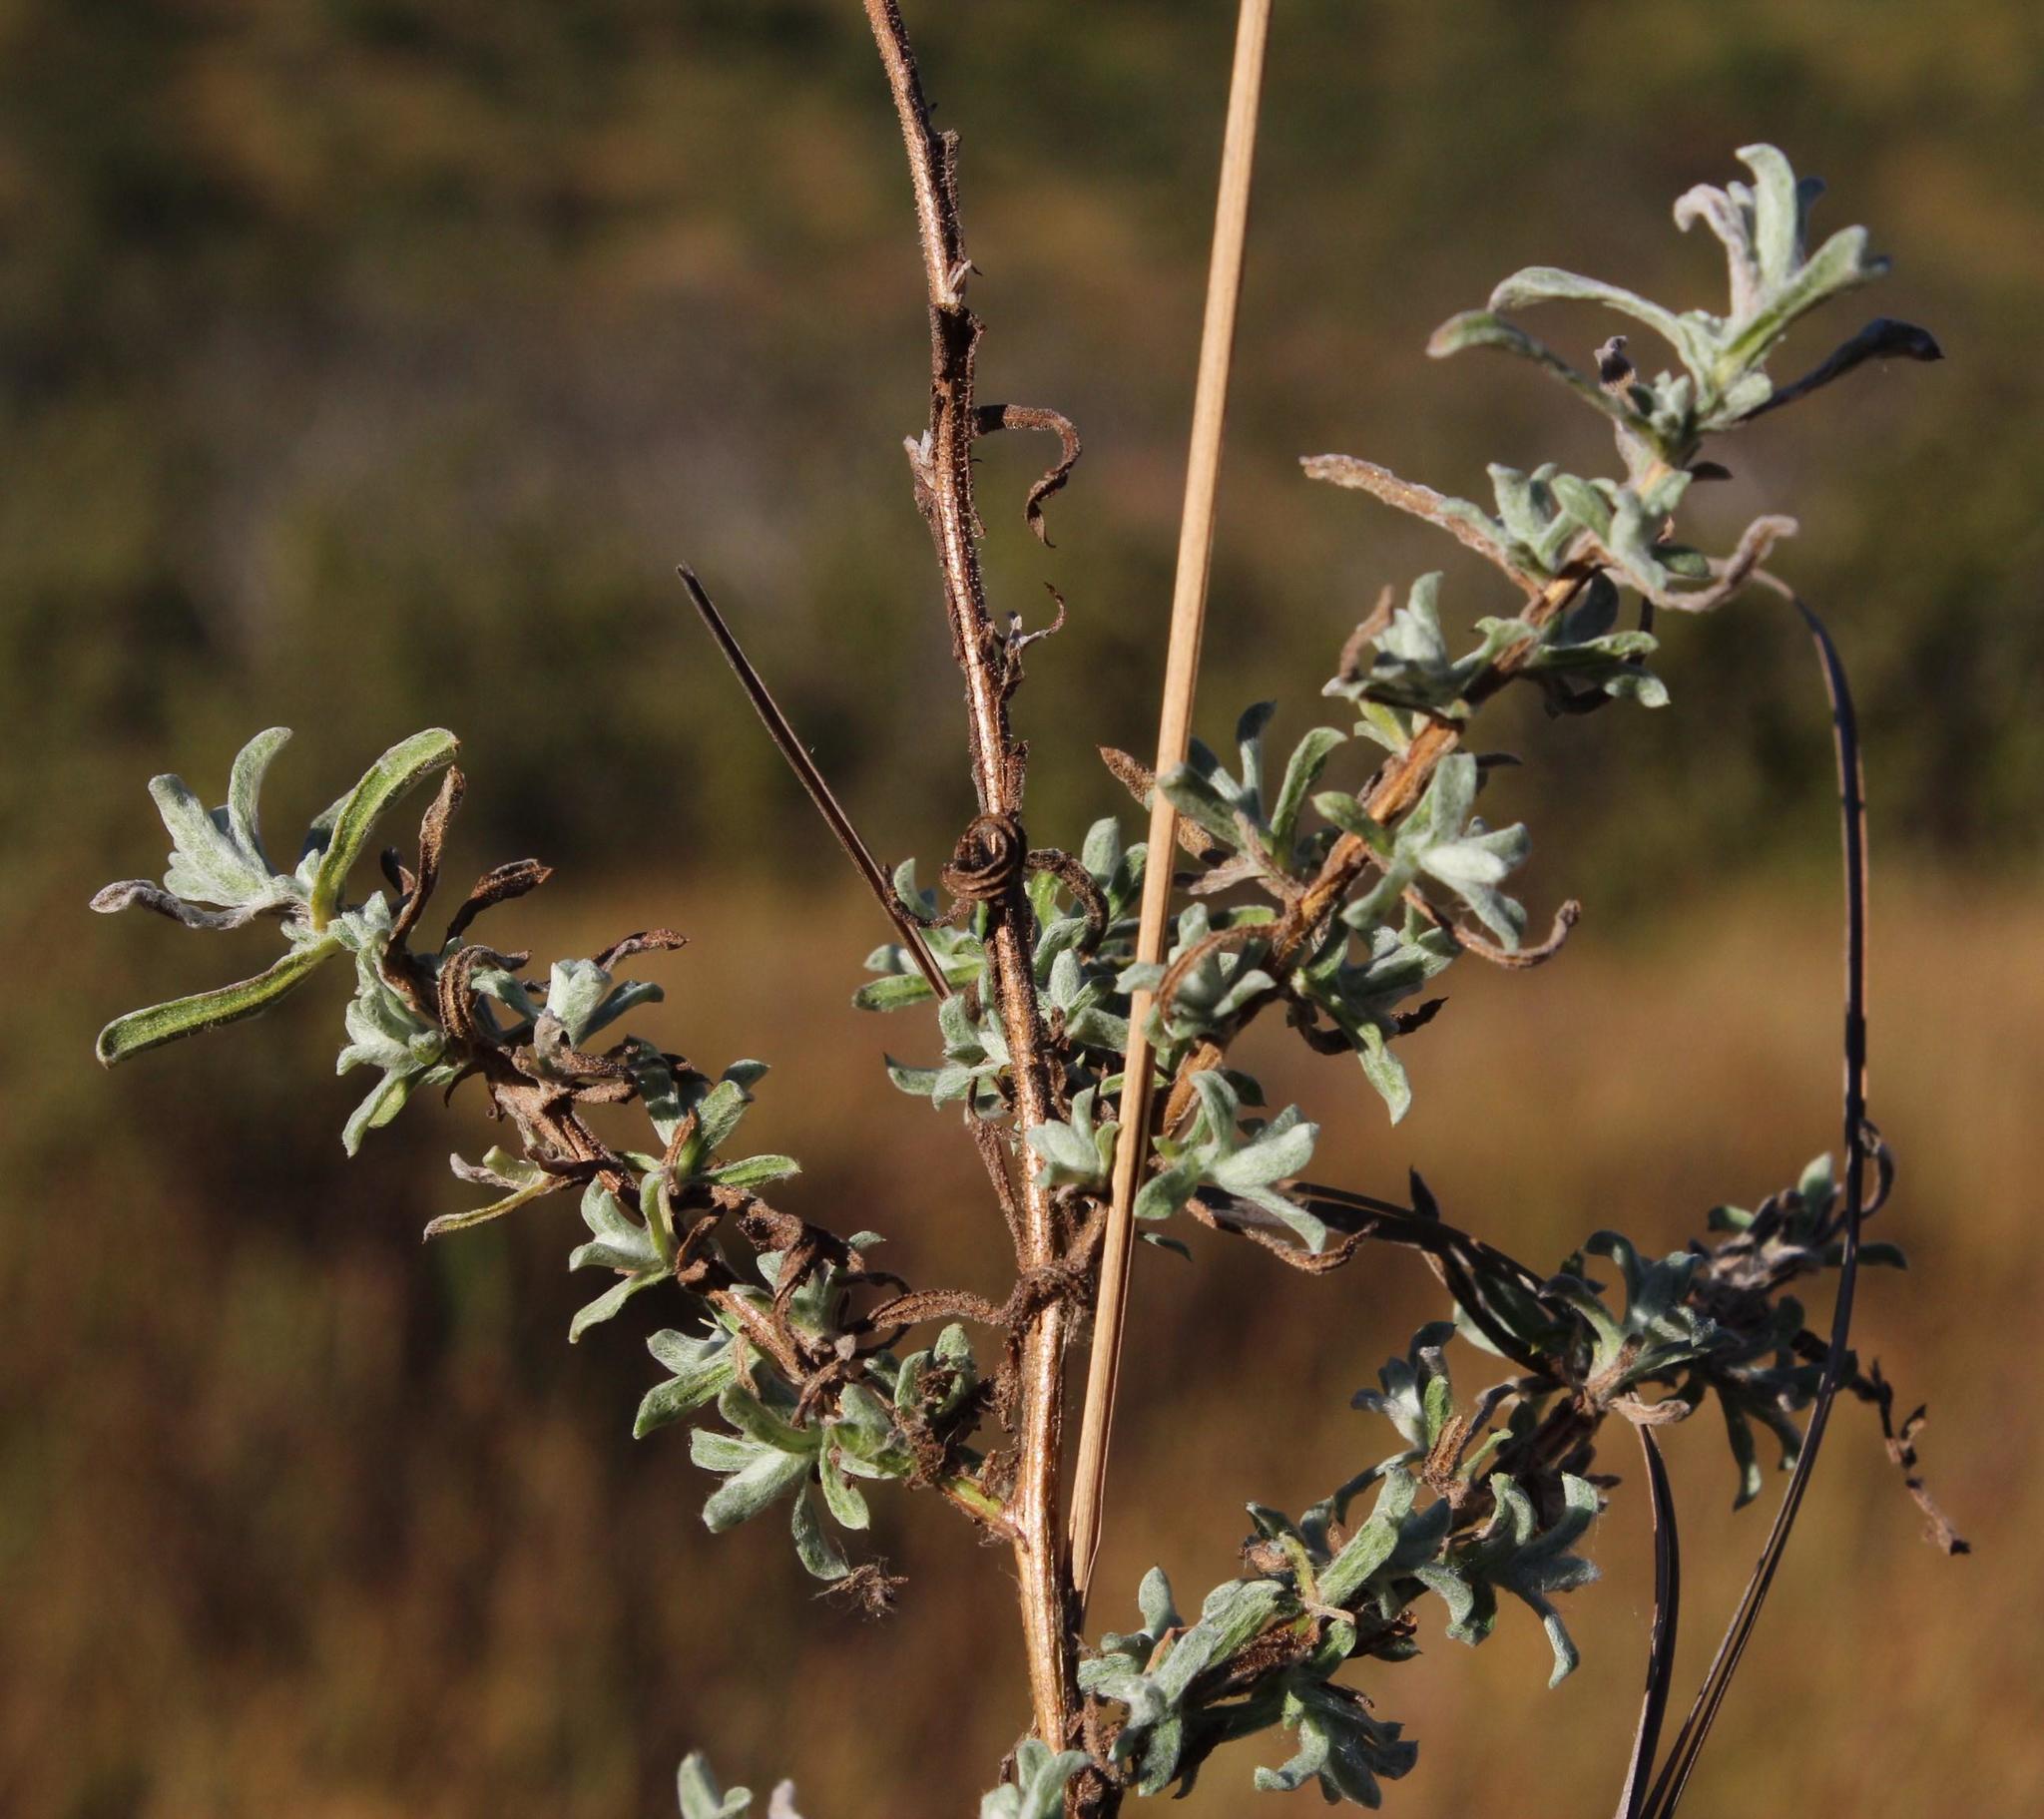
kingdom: Plantae
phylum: Tracheophyta
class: Magnoliopsida
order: Asterales
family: Asteraceae
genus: Helichrysum
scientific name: Helichrysum odoratissimum
